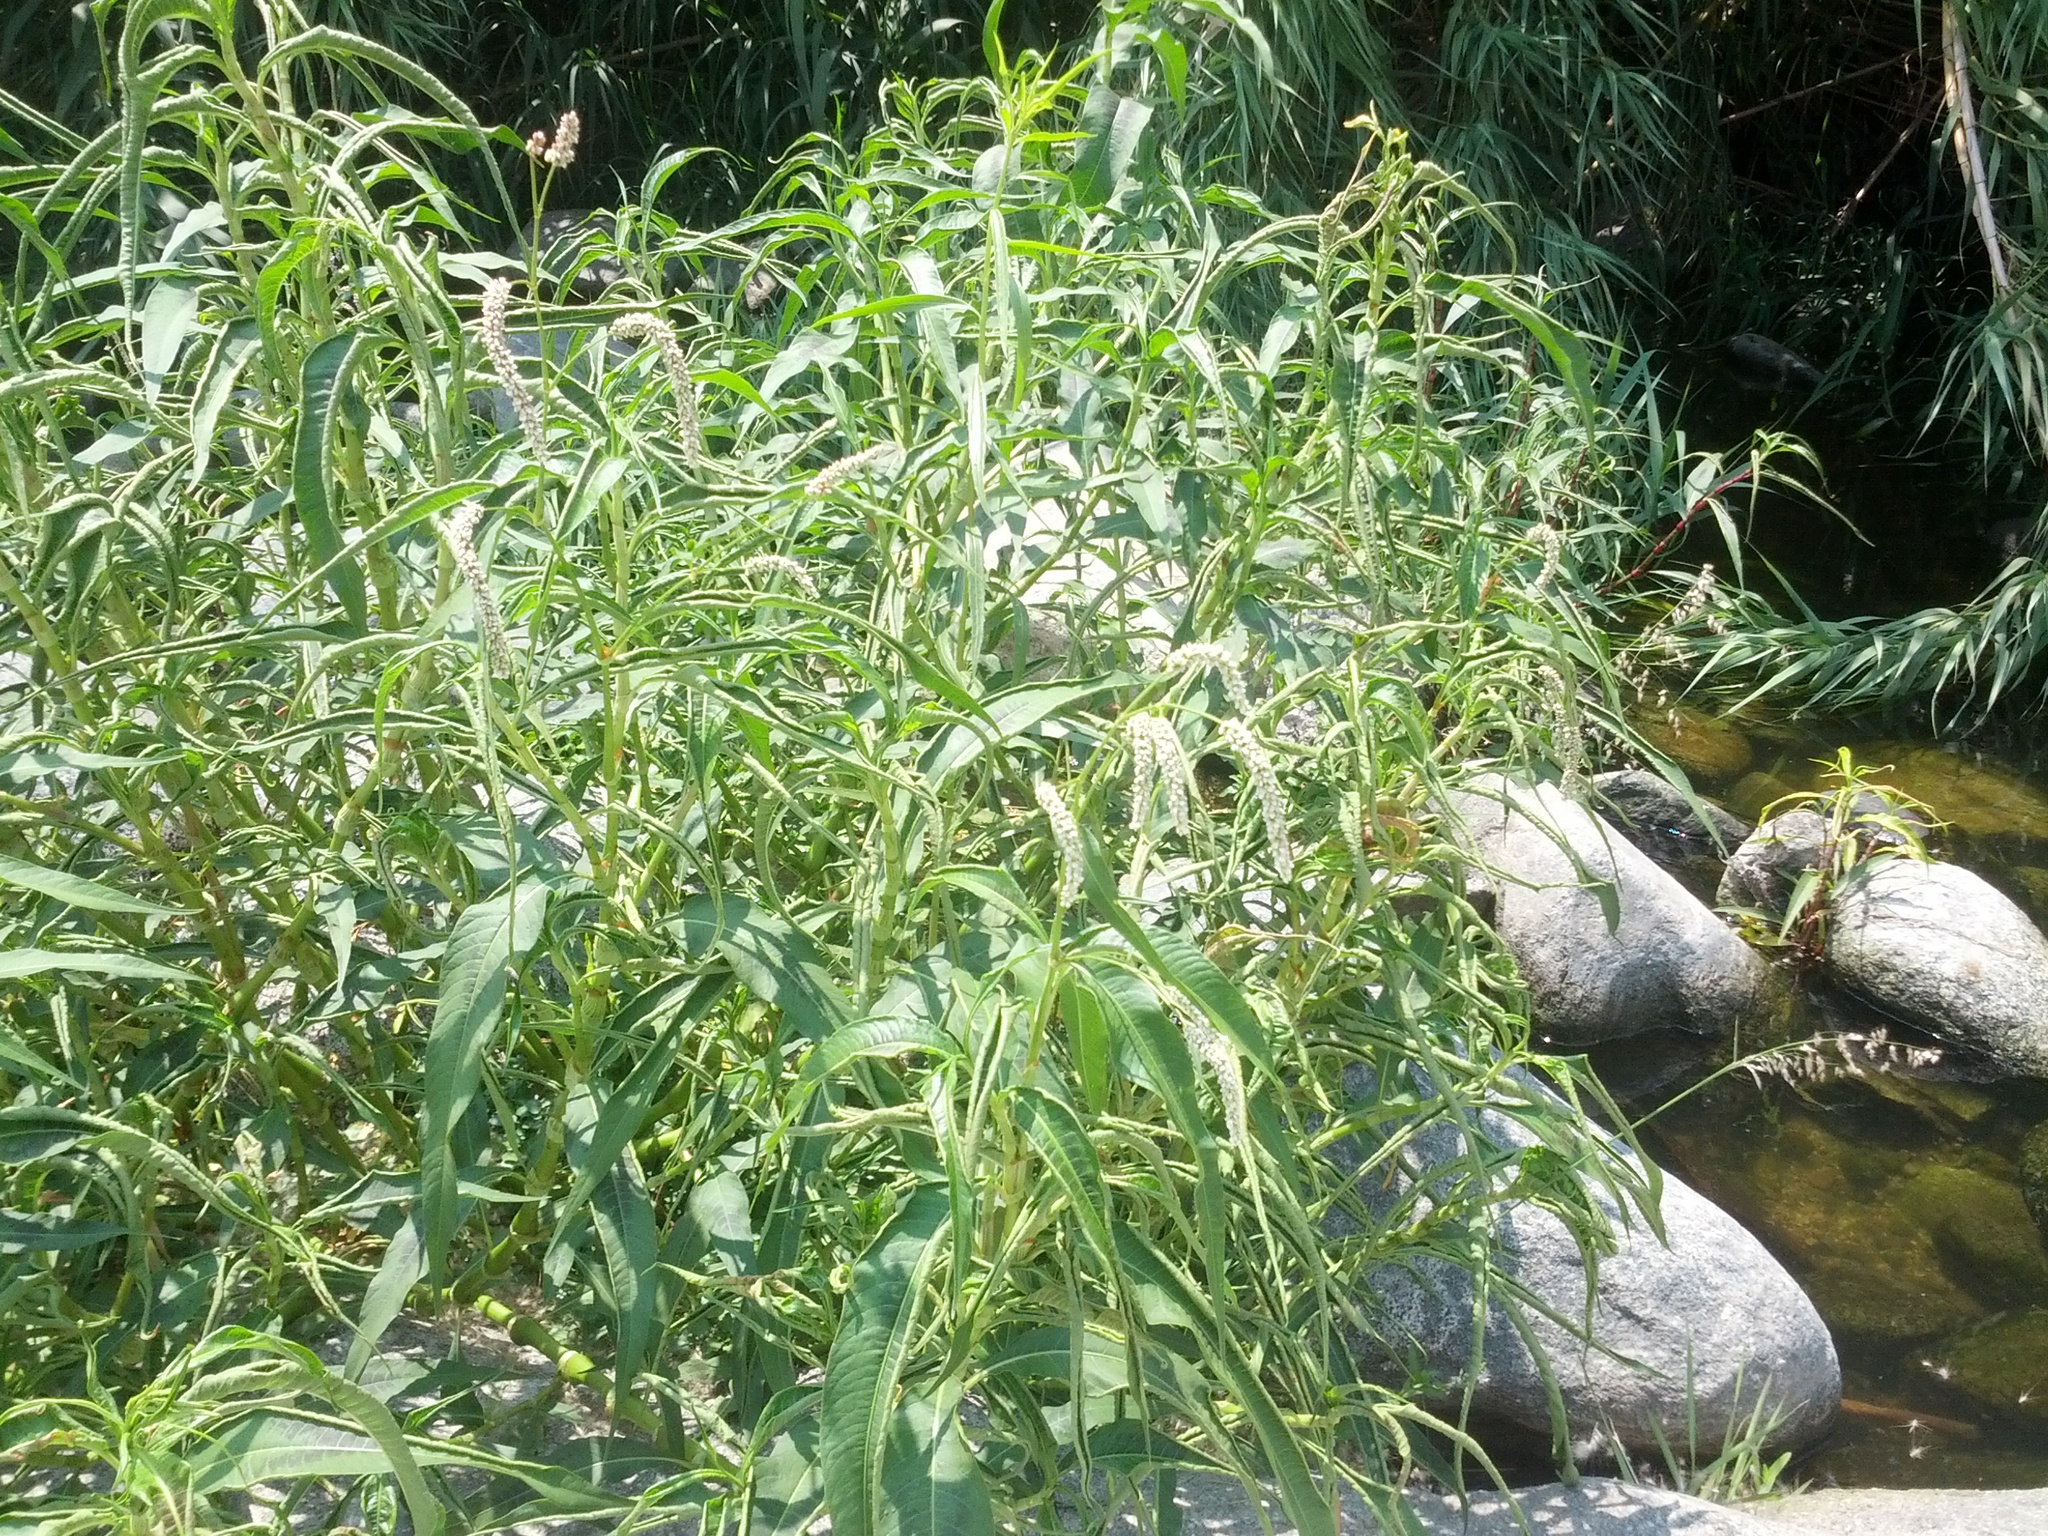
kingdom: Plantae
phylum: Tracheophyta
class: Magnoliopsida
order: Caryophyllales
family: Polygonaceae
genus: Persicaria
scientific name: Persicaria lapathifolia
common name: Curlytop knotweed
